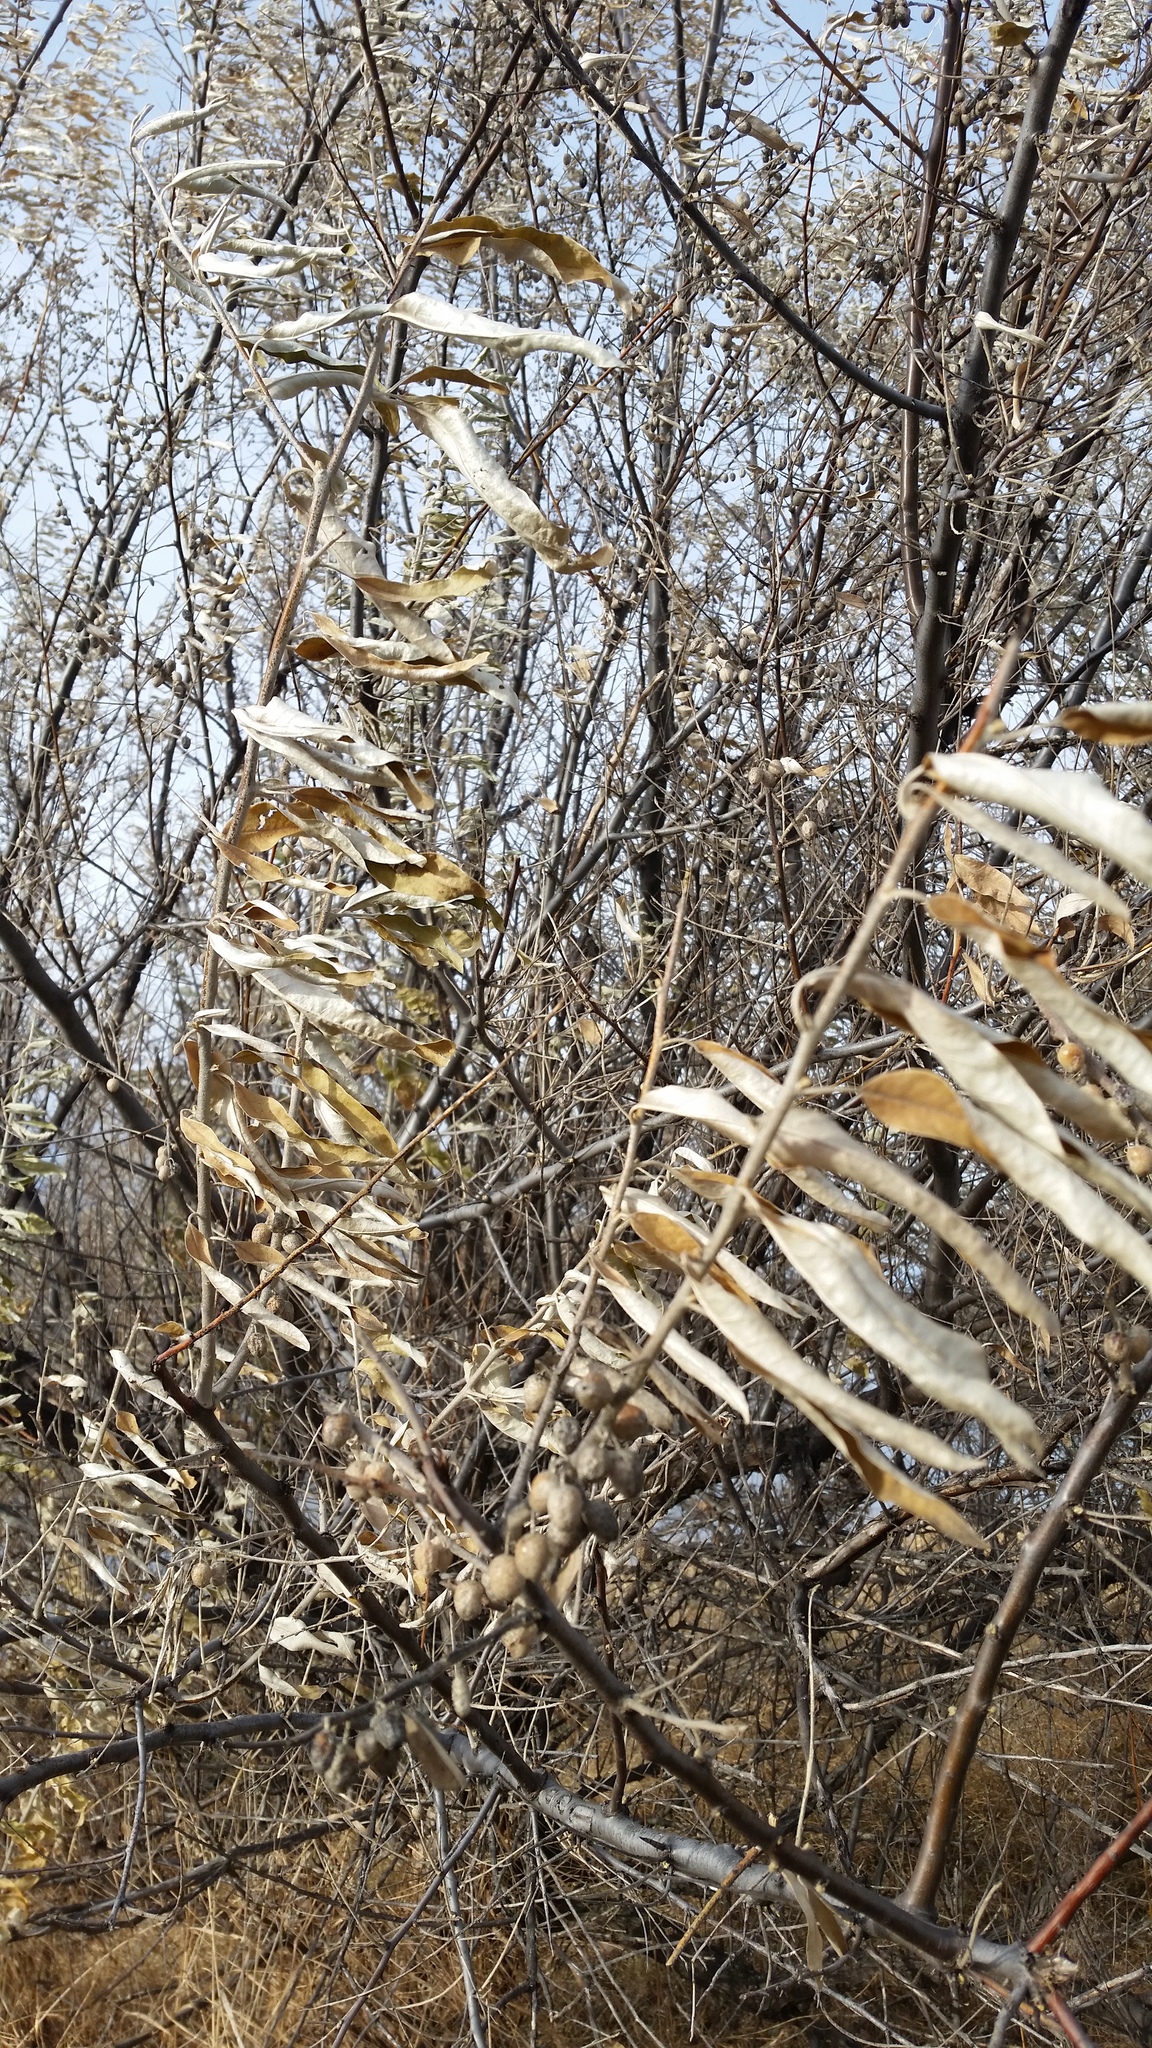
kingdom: Plantae
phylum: Tracheophyta
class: Magnoliopsida
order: Rosales
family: Elaeagnaceae
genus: Elaeagnus
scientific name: Elaeagnus angustifolia
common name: Russian olive
